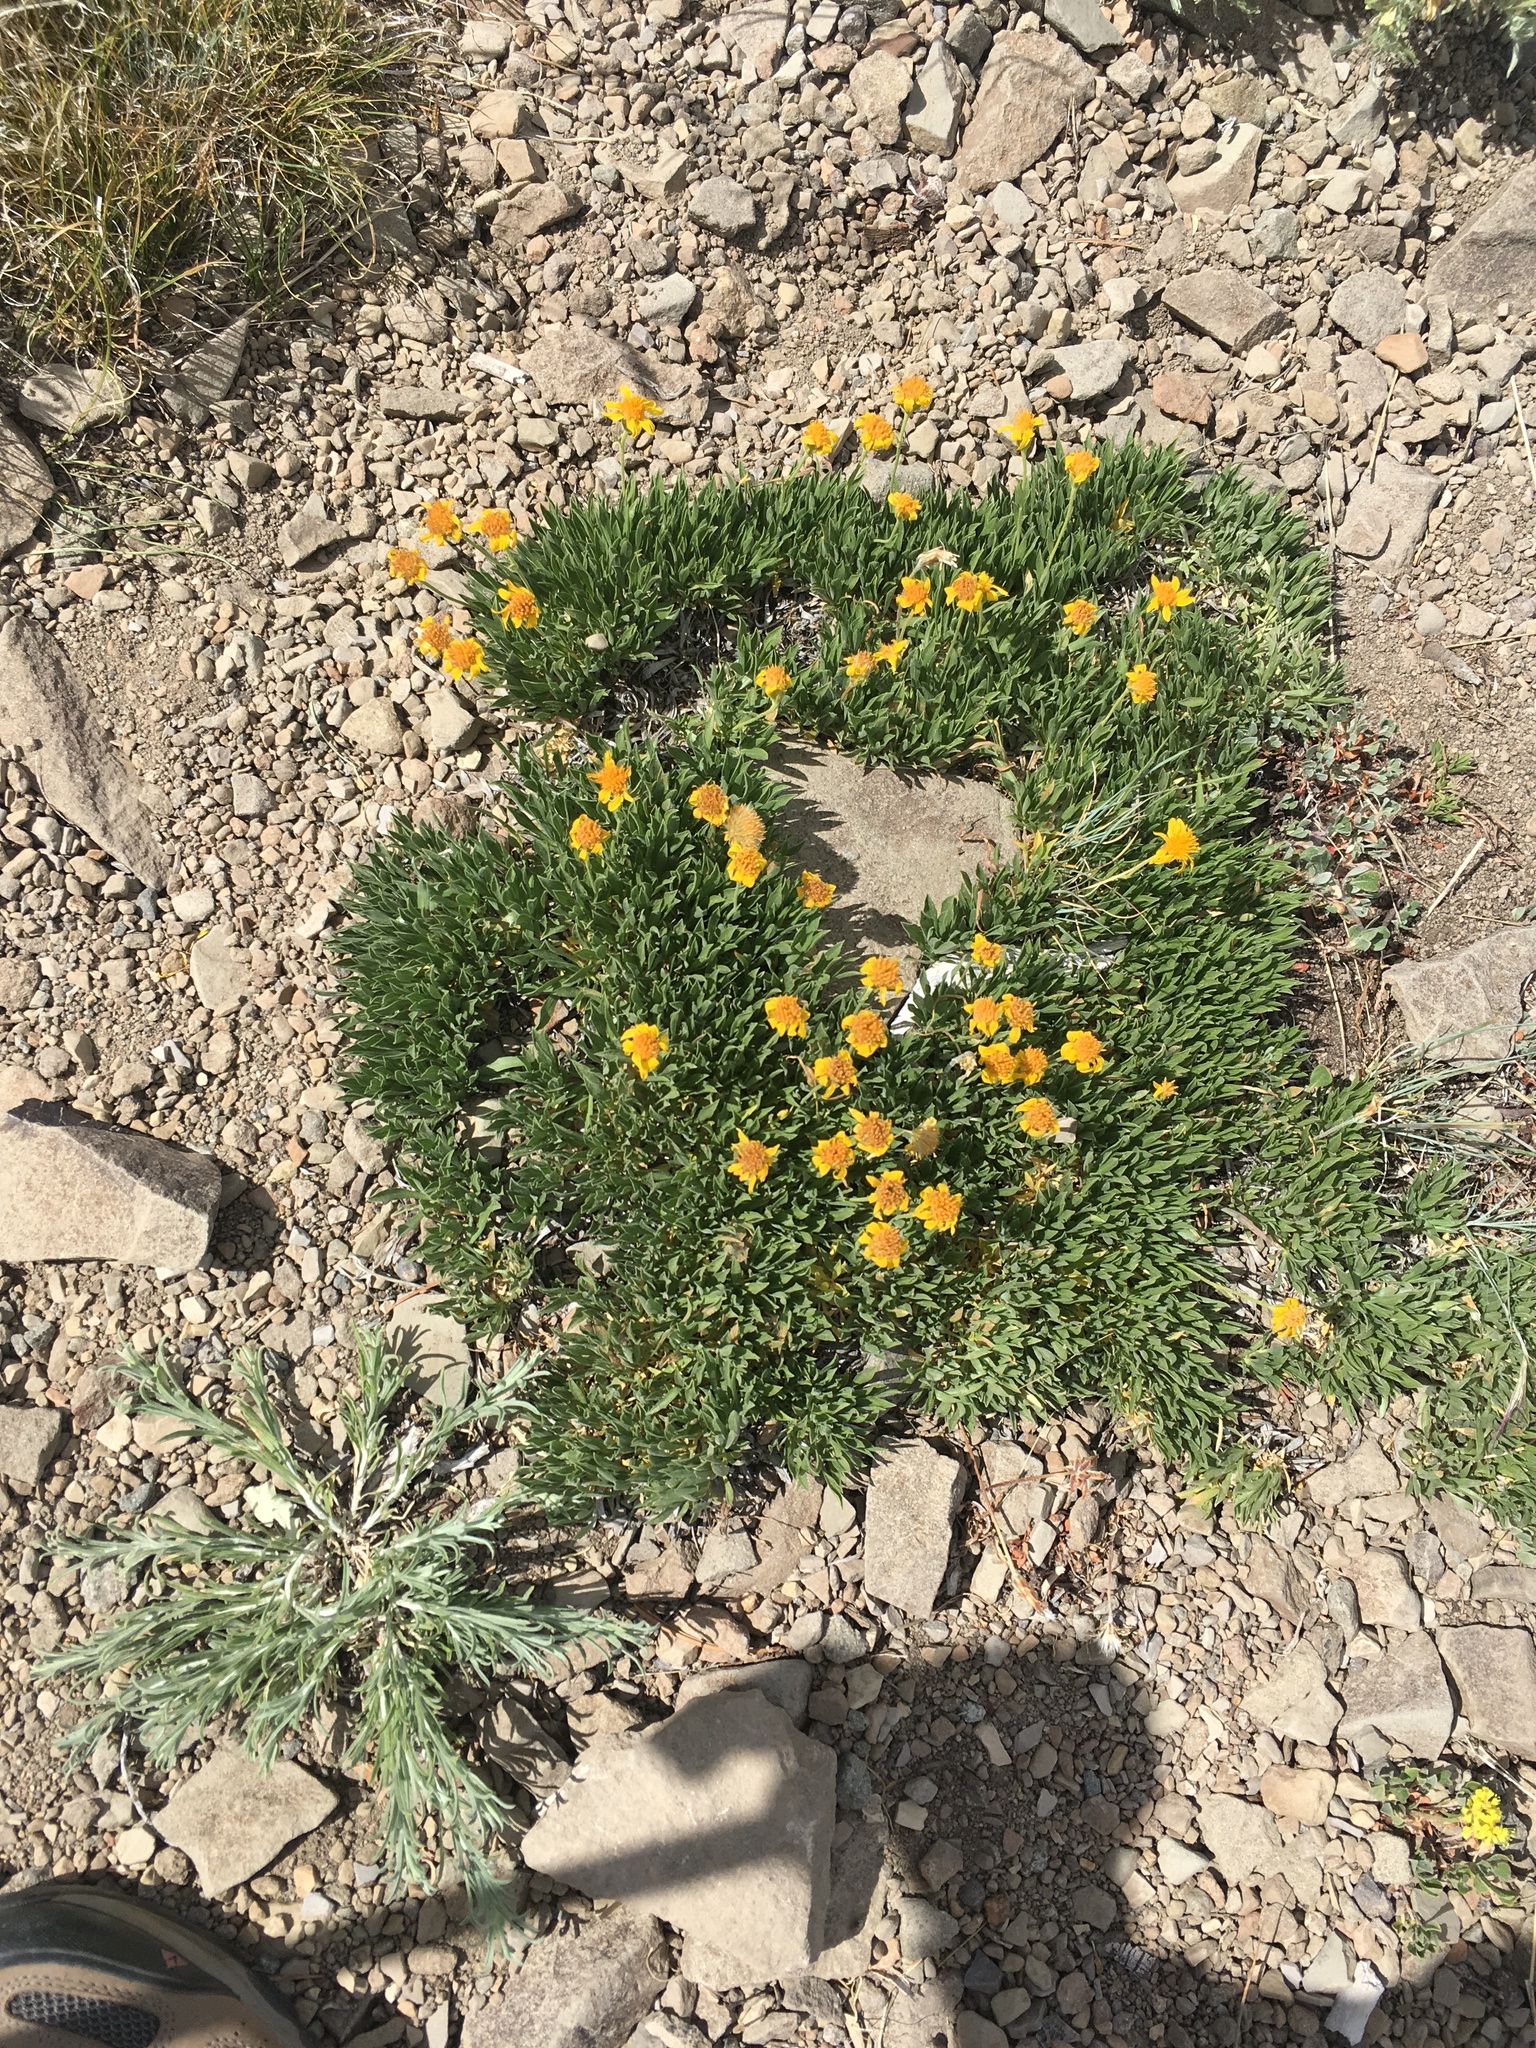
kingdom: Plantae
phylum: Tracheophyta
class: Magnoliopsida
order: Asterales
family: Asteraceae
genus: Stenotus
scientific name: Stenotus acaulis
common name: Stemless goldenweed
